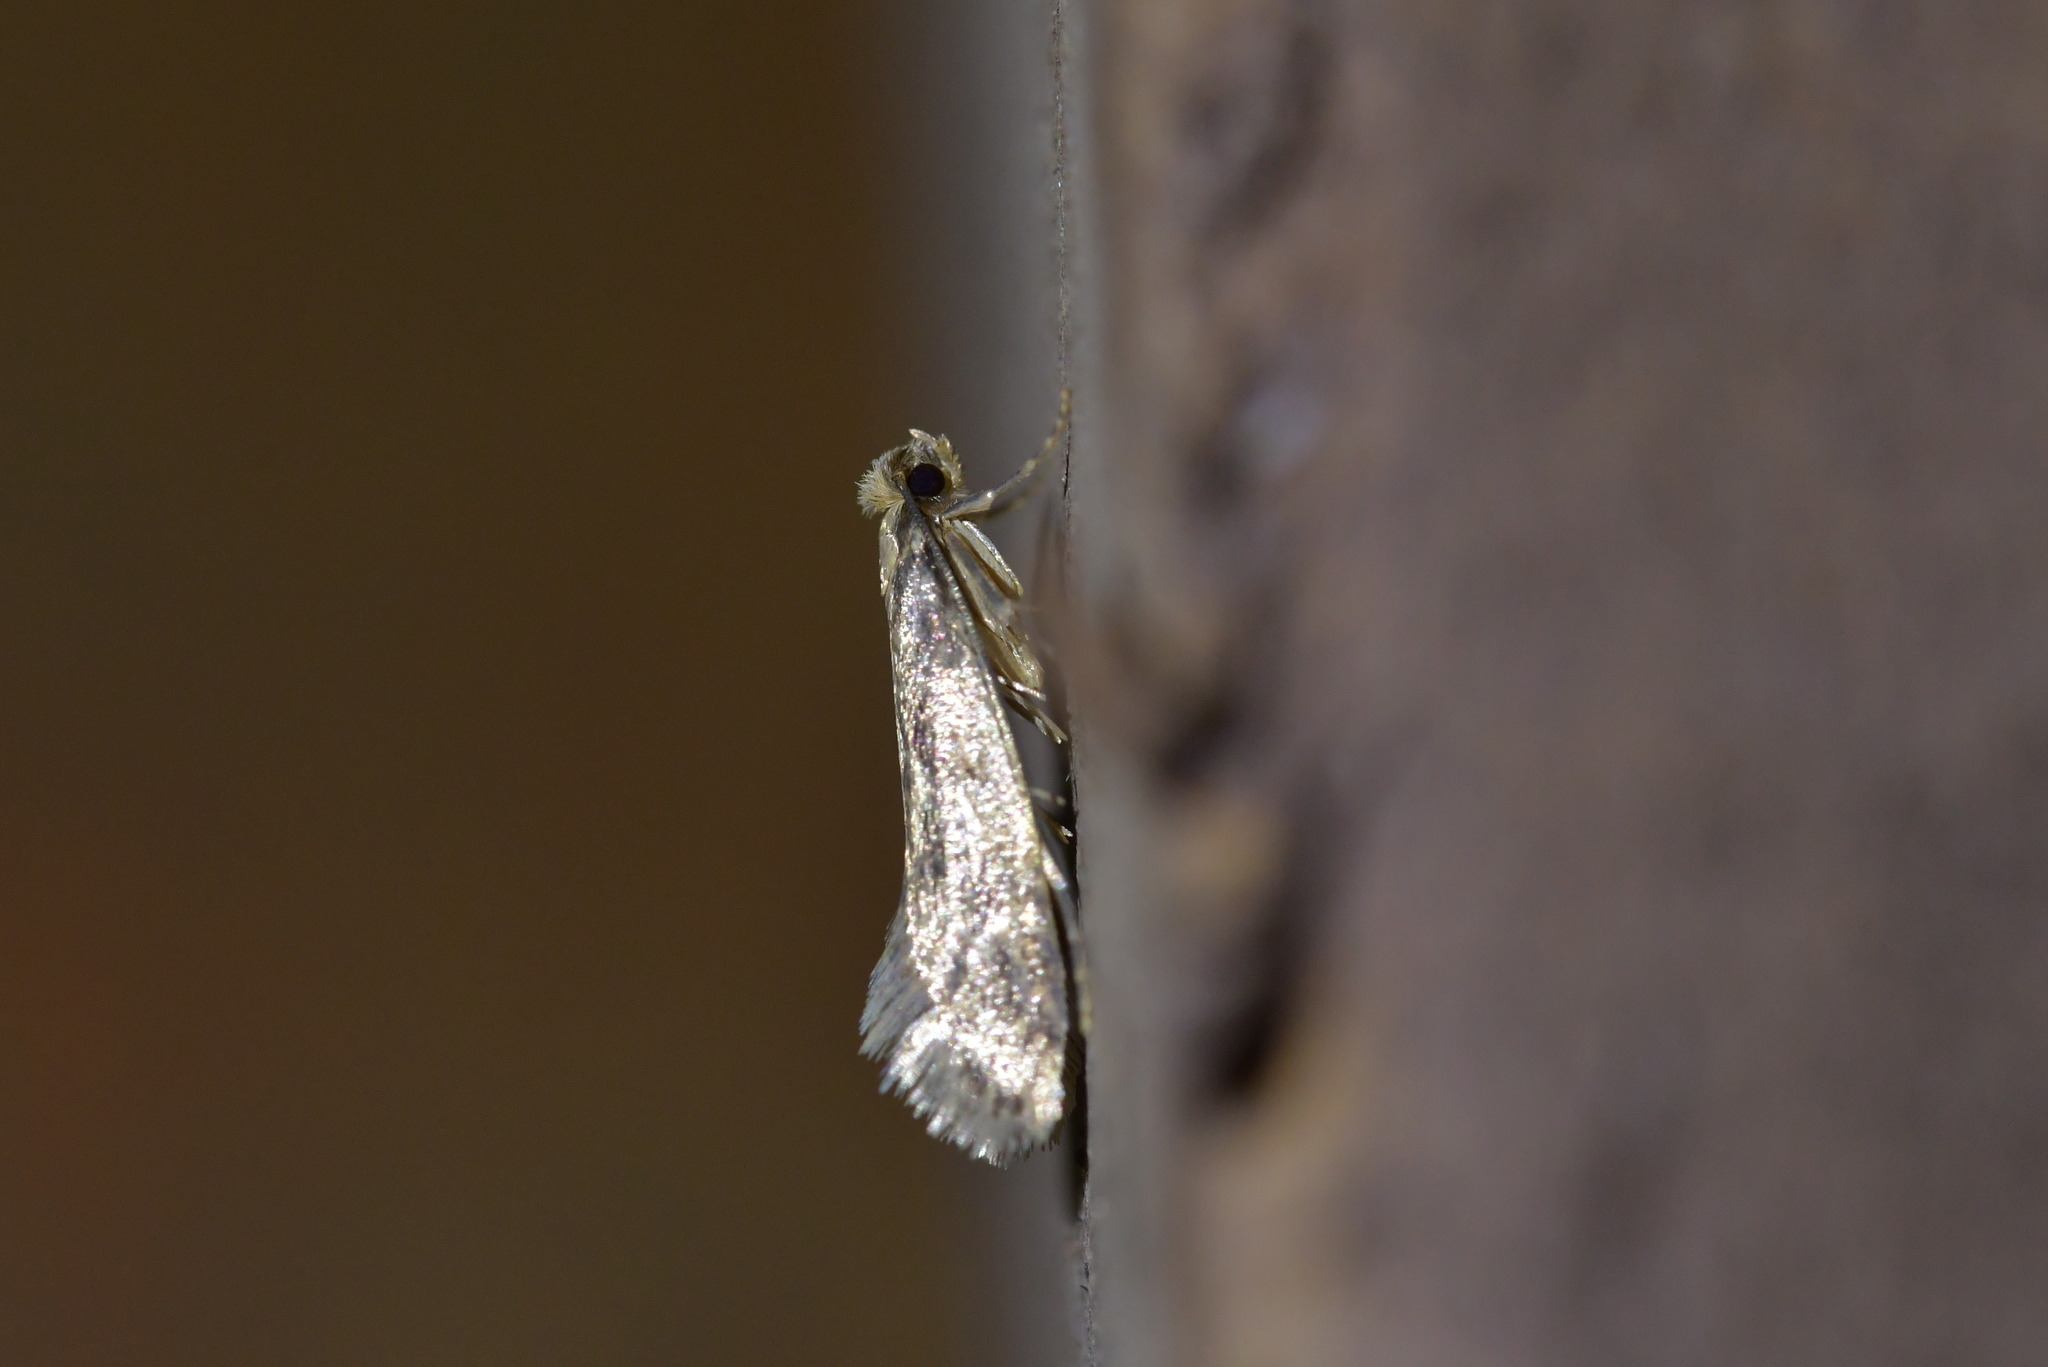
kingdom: Animalia
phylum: Arthropoda
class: Insecta
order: Lepidoptera
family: Tineidae
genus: Tinea
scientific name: Tinea pallescentella
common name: Large pale clothes moth
